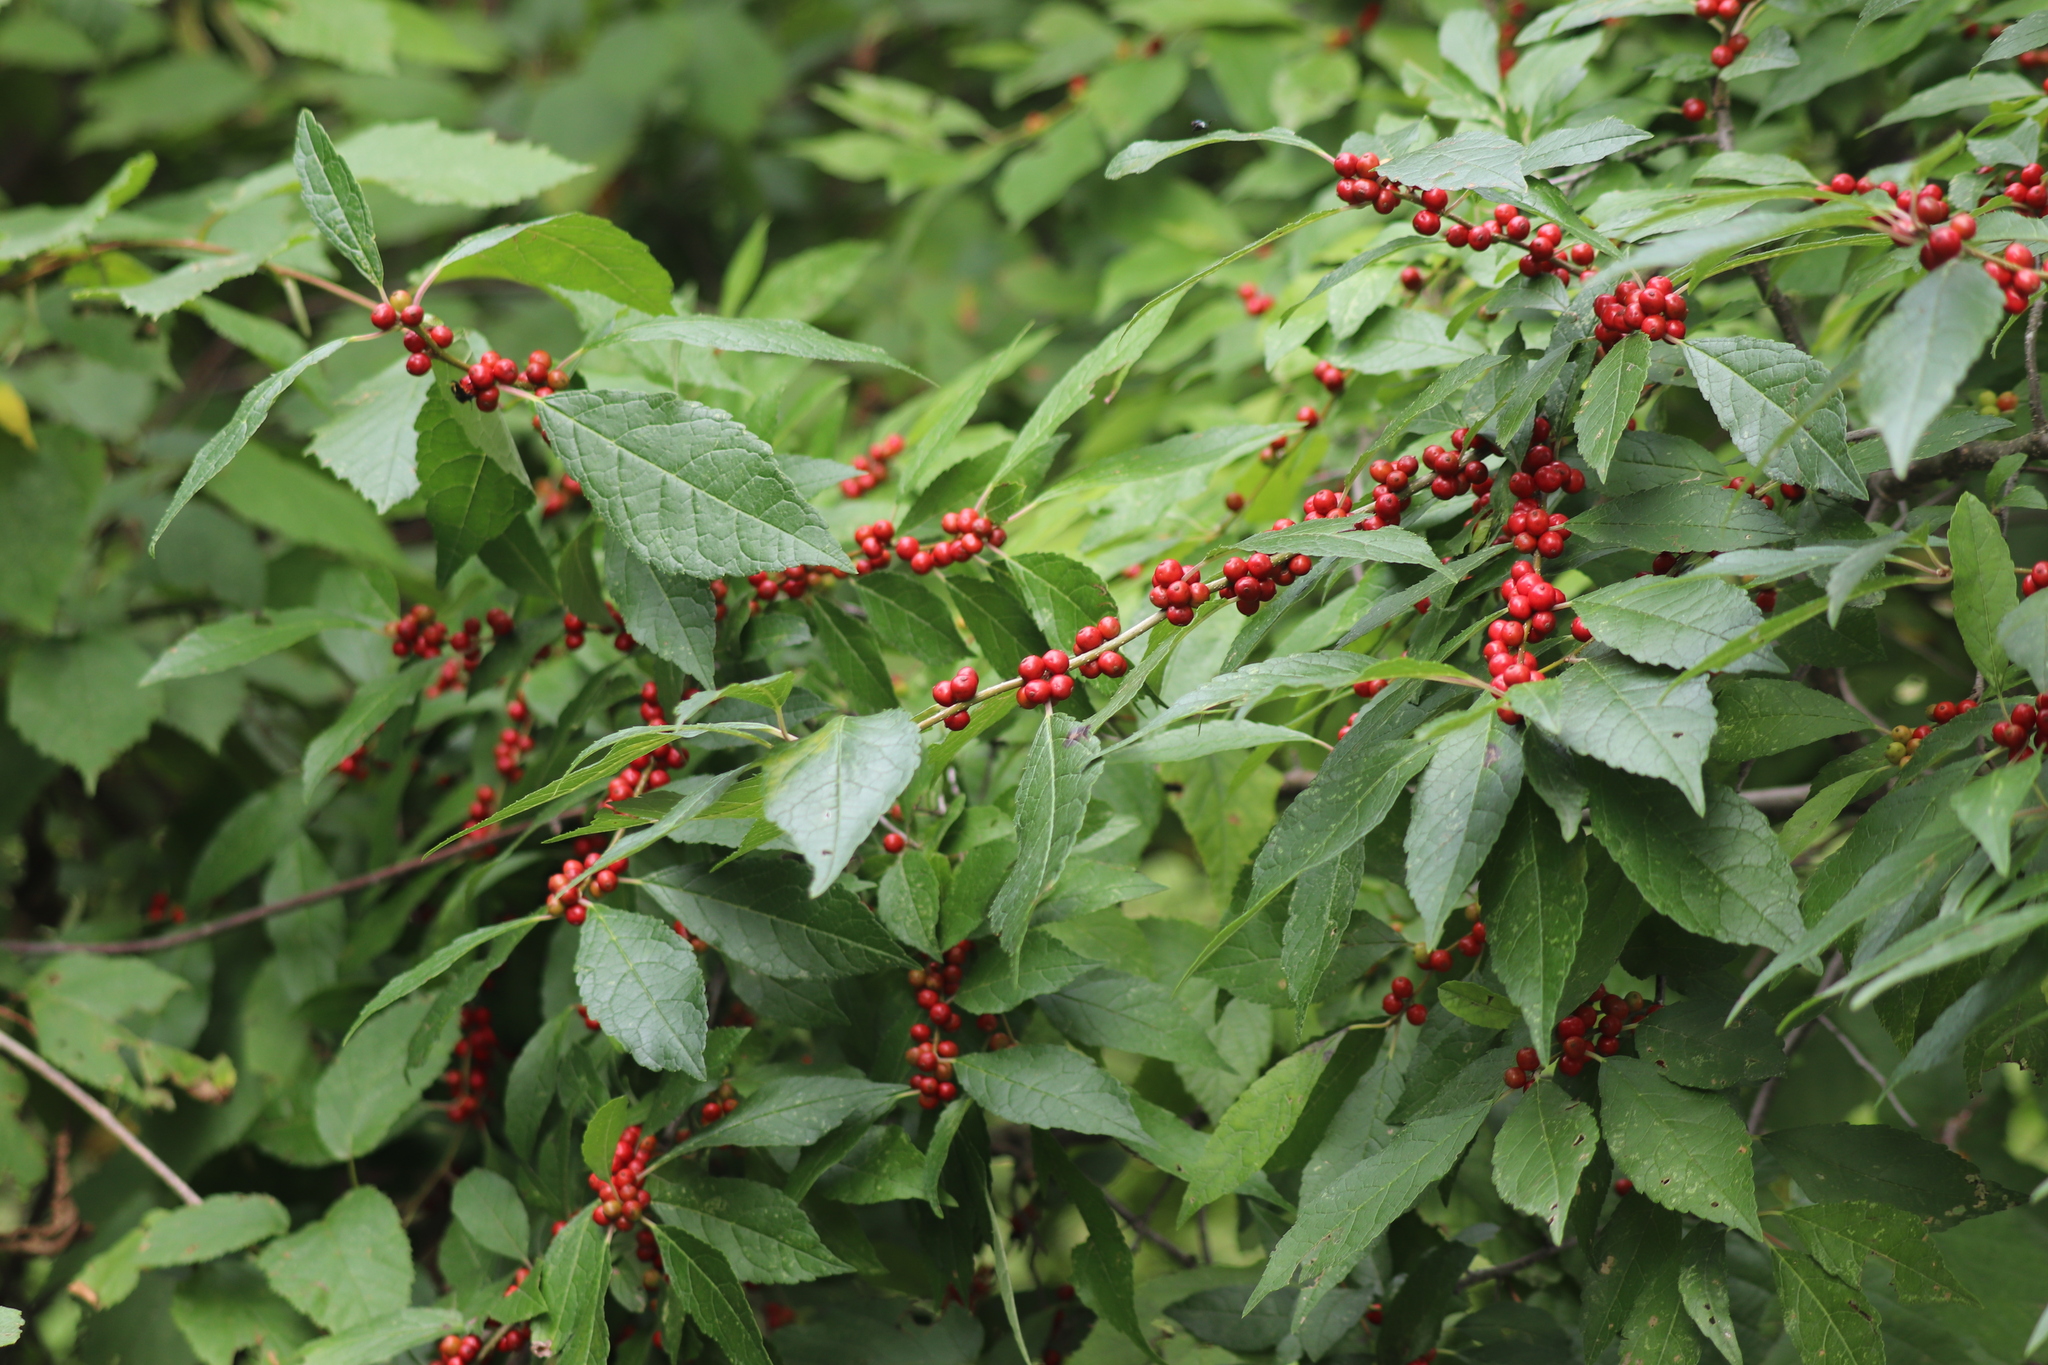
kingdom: Plantae
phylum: Tracheophyta
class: Magnoliopsida
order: Aquifoliales
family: Aquifoliaceae
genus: Ilex
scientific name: Ilex verticillata
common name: Virginia winterberry
